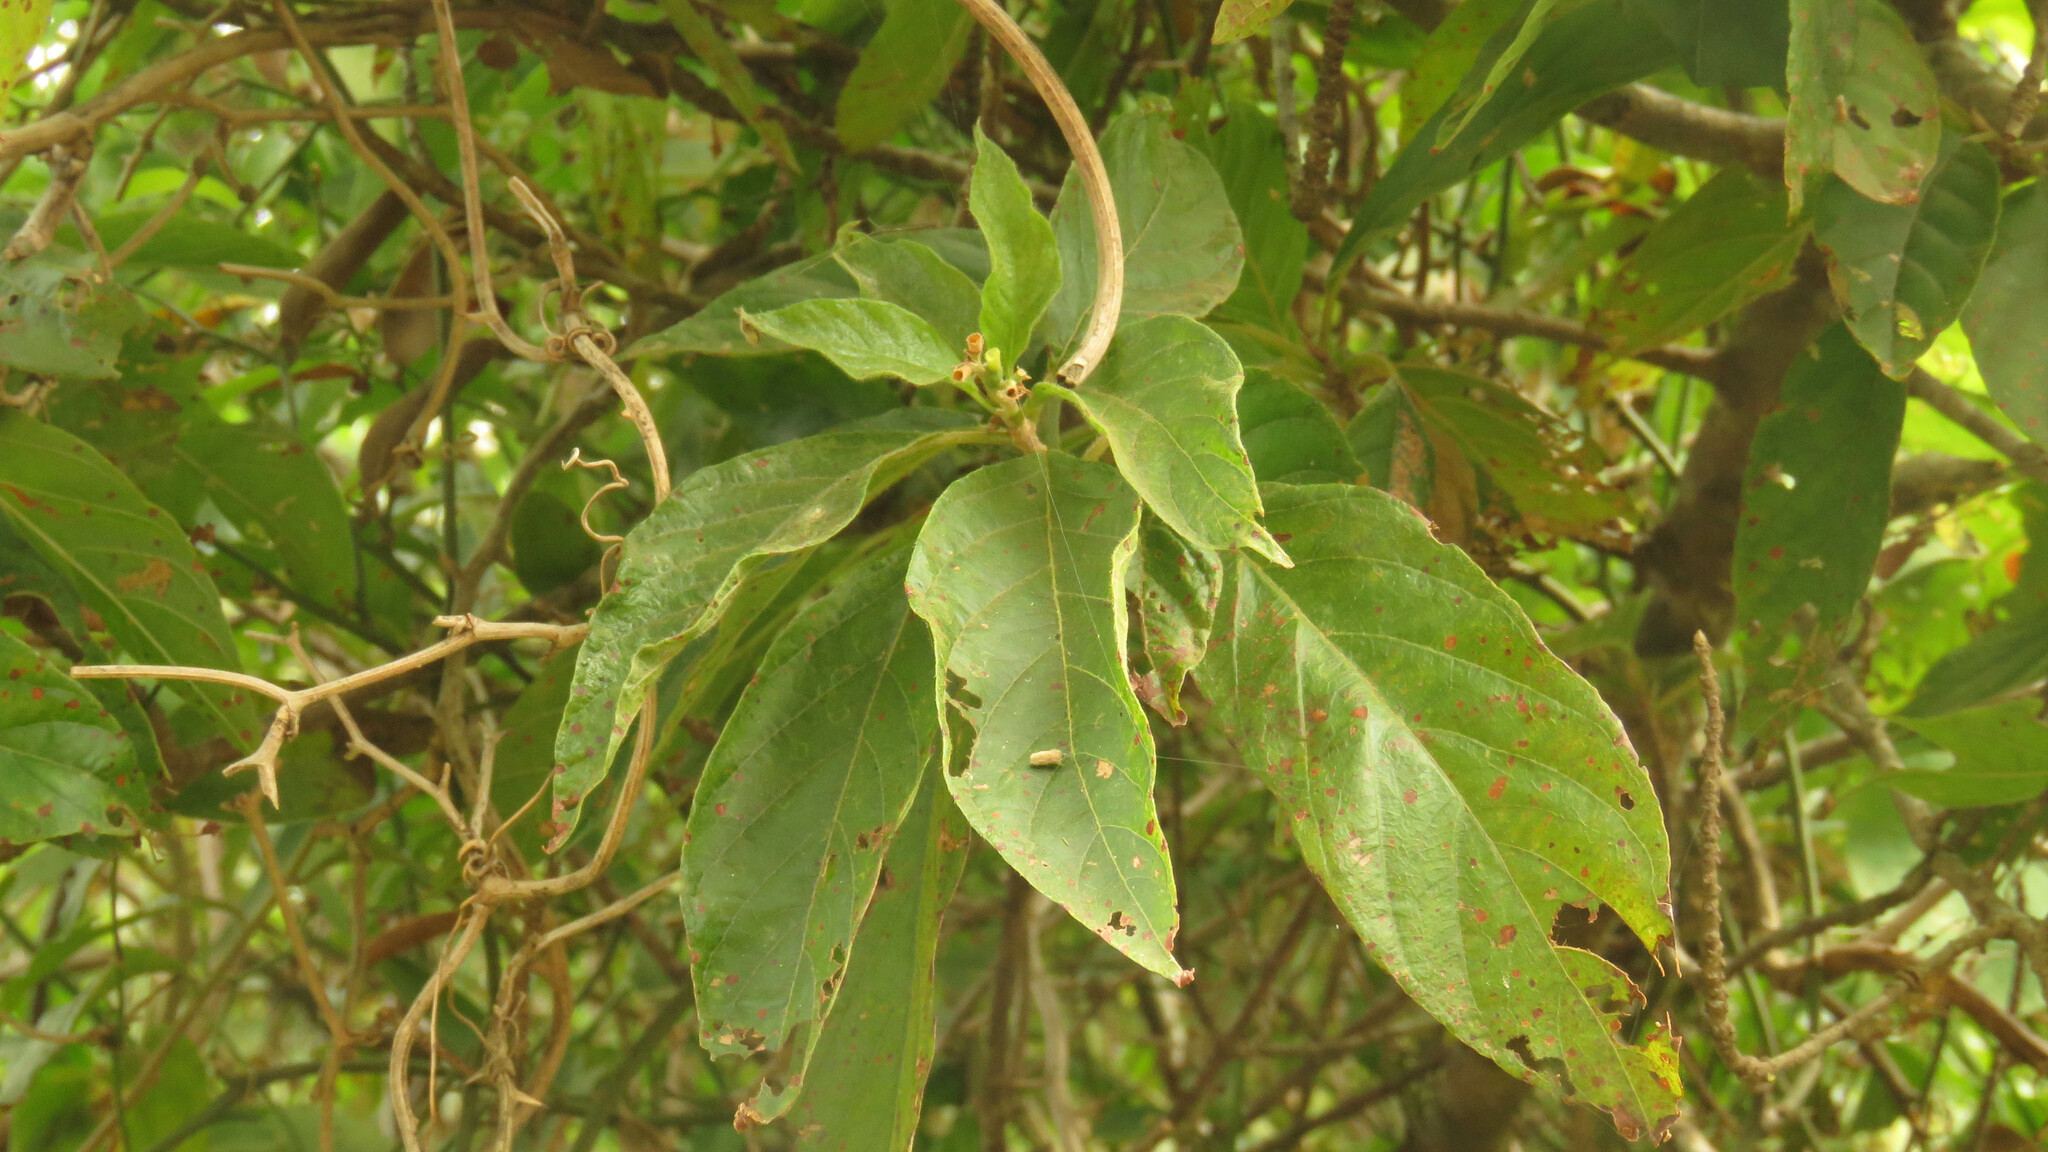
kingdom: Plantae
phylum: Tracheophyta
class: Magnoliopsida
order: Gentianales
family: Rubiaceae
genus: Guettarda
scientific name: Guettarda uruguensis
